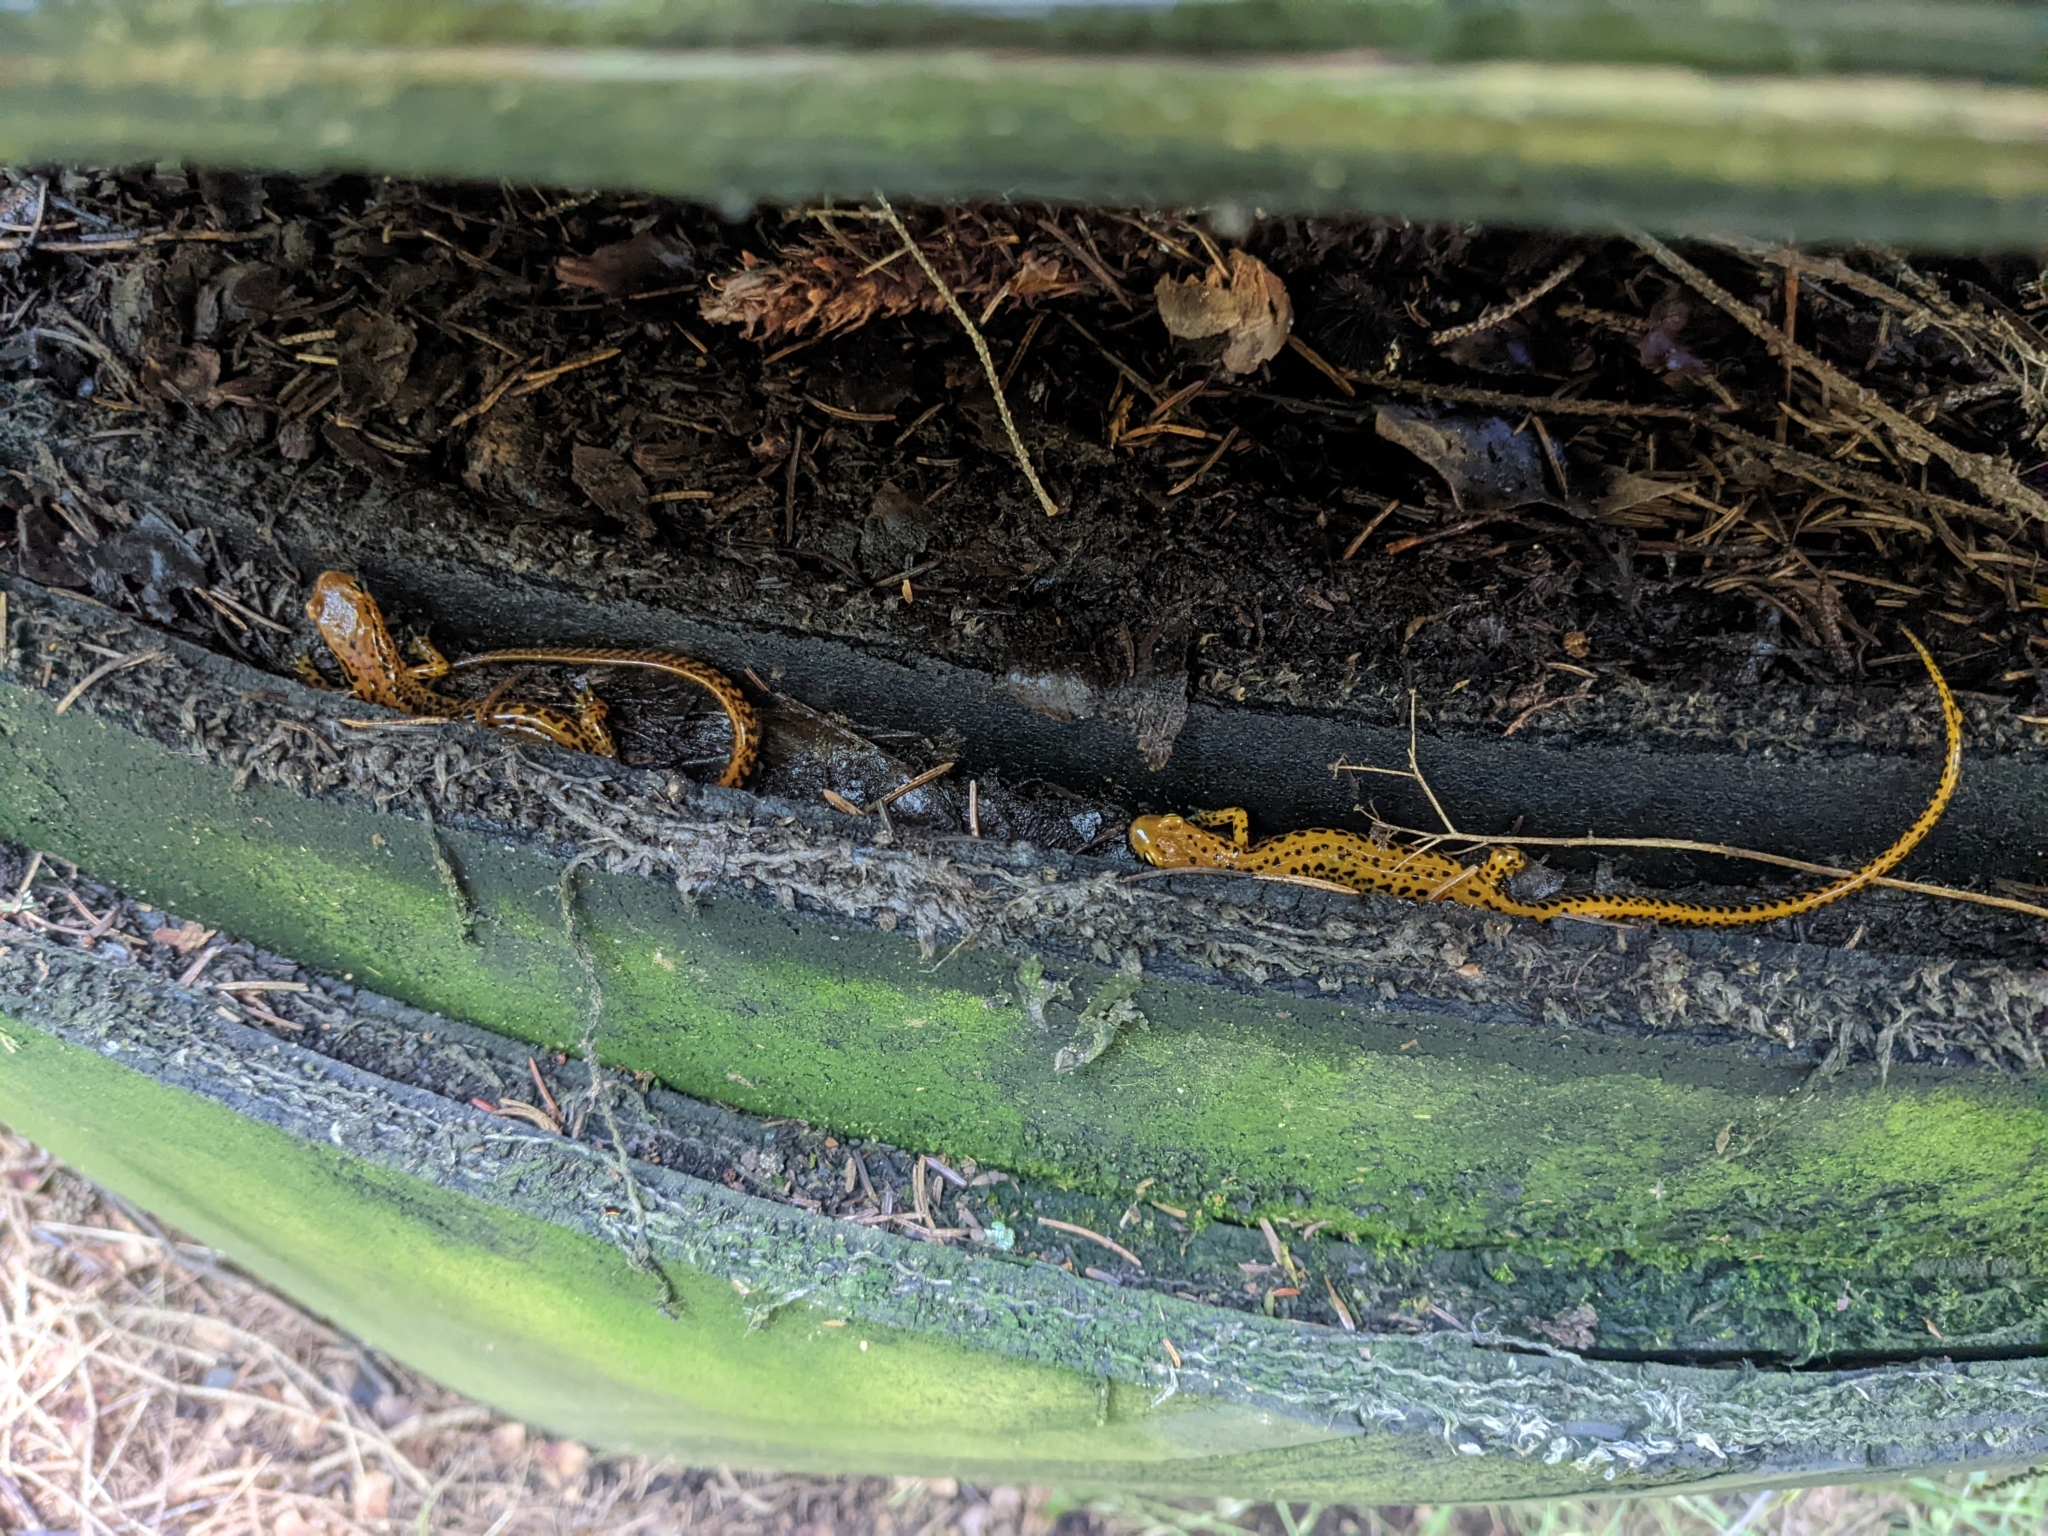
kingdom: Animalia
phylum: Chordata
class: Amphibia
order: Caudata
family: Plethodontidae
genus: Eurycea
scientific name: Eurycea longicauda
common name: Long-tailed salamander
